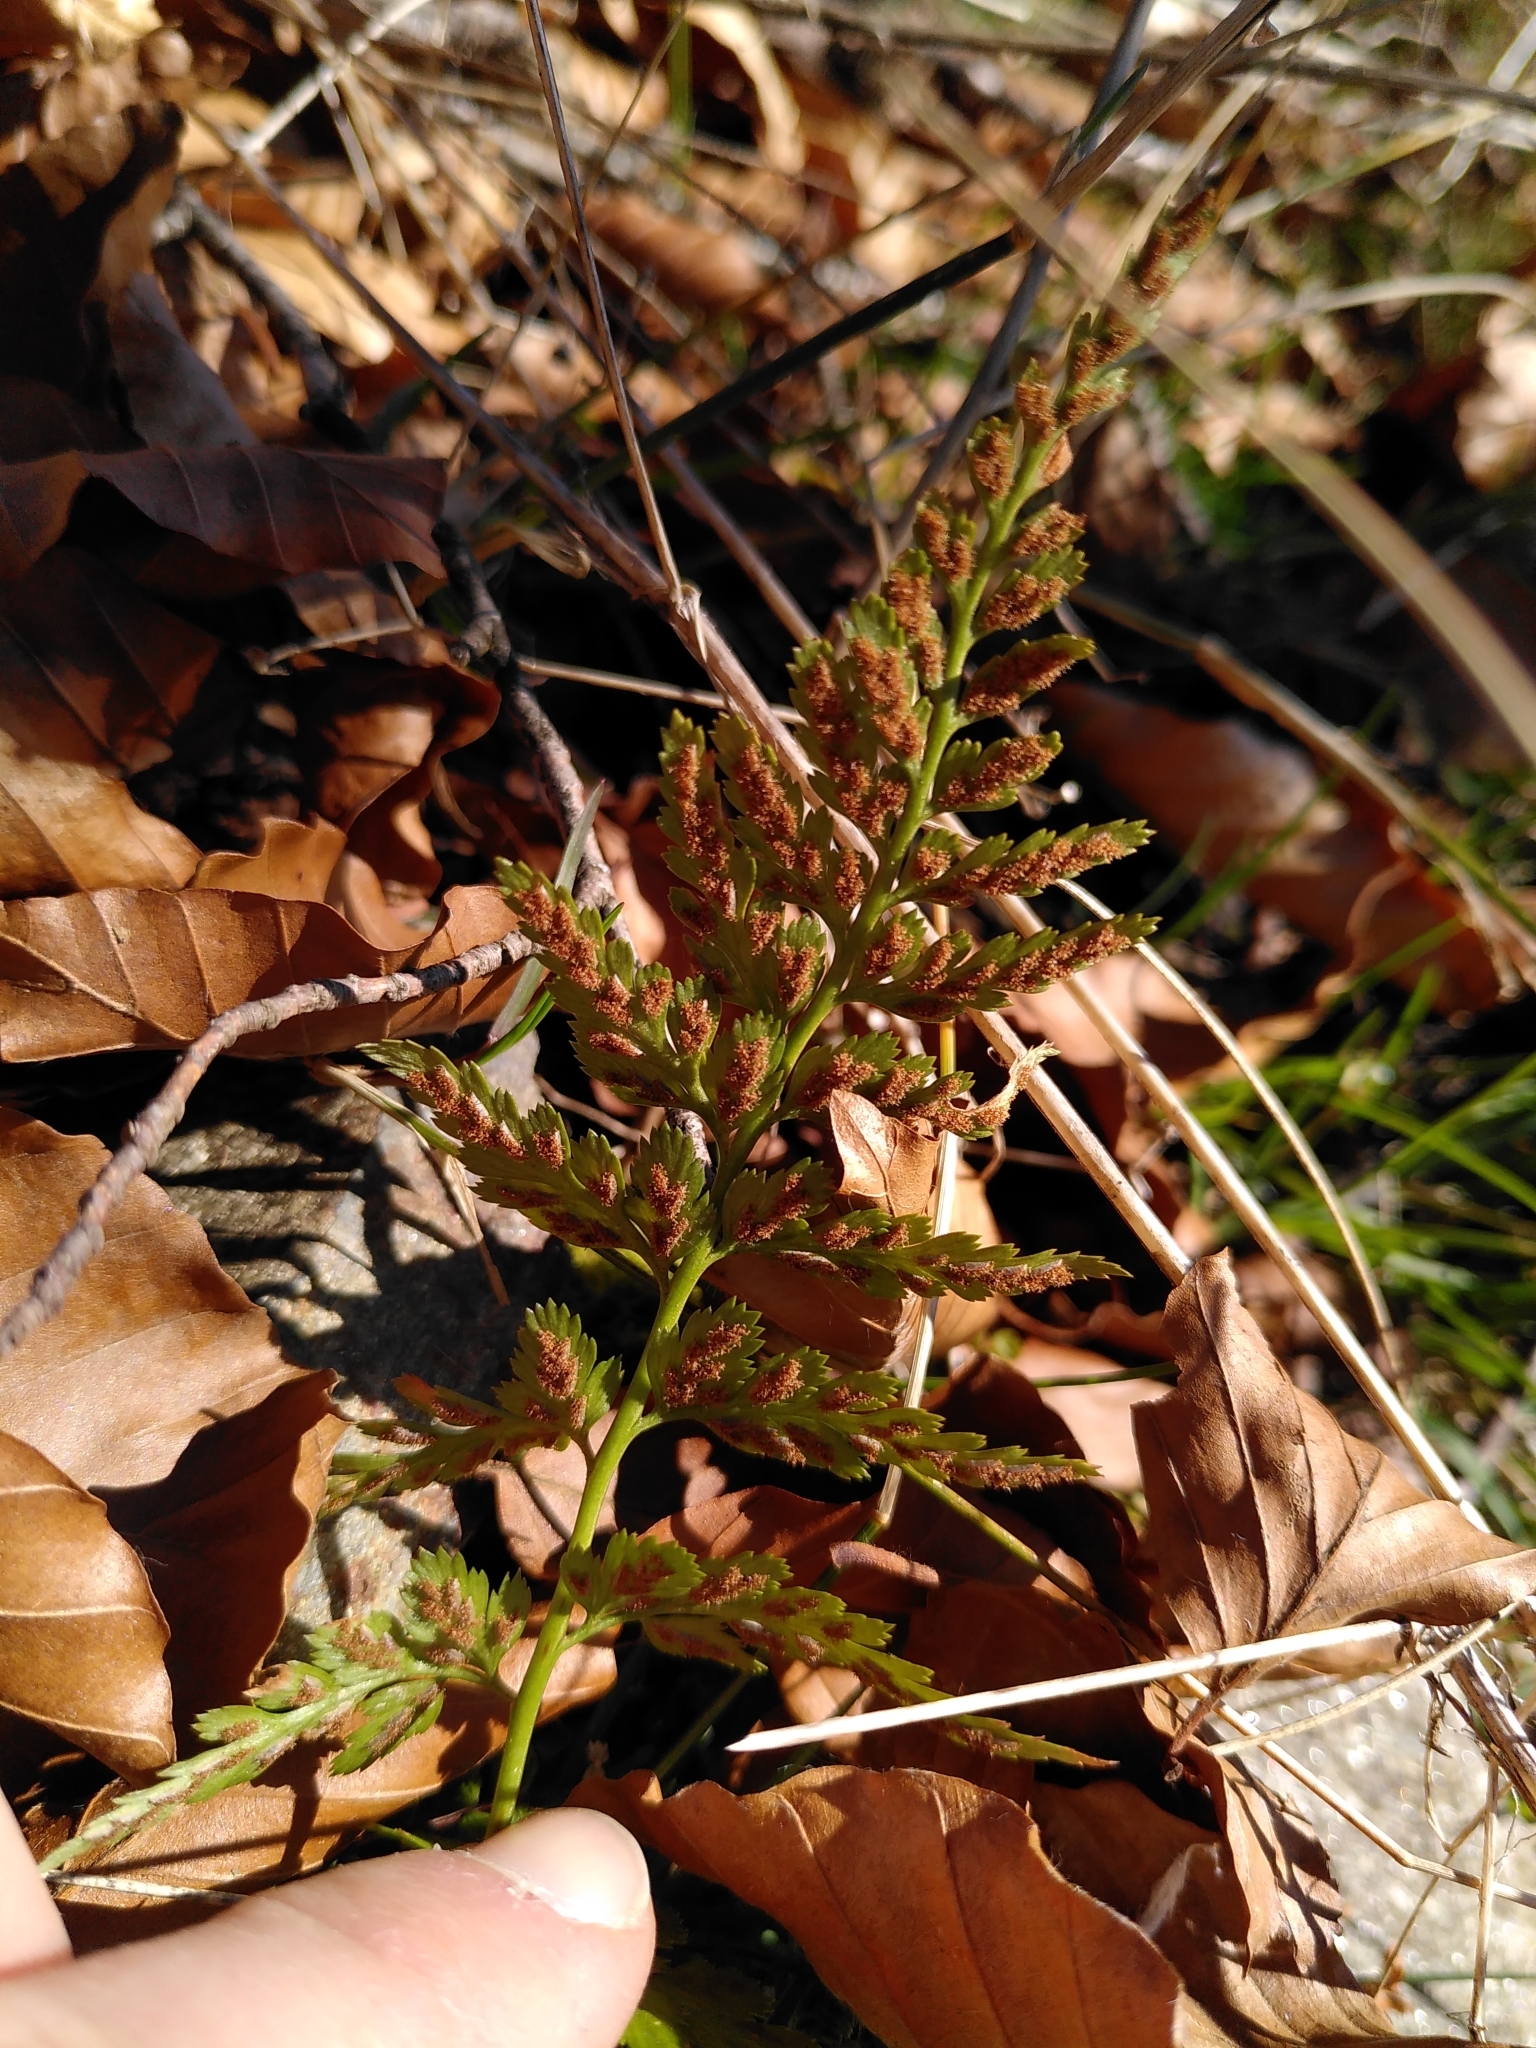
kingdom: Plantae
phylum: Tracheophyta
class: Polypodiopsida
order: Polypodiales
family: Aspleniaceae
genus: Asplenium
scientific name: Asplenium adiantum-nigrum
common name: Black spleenwort
